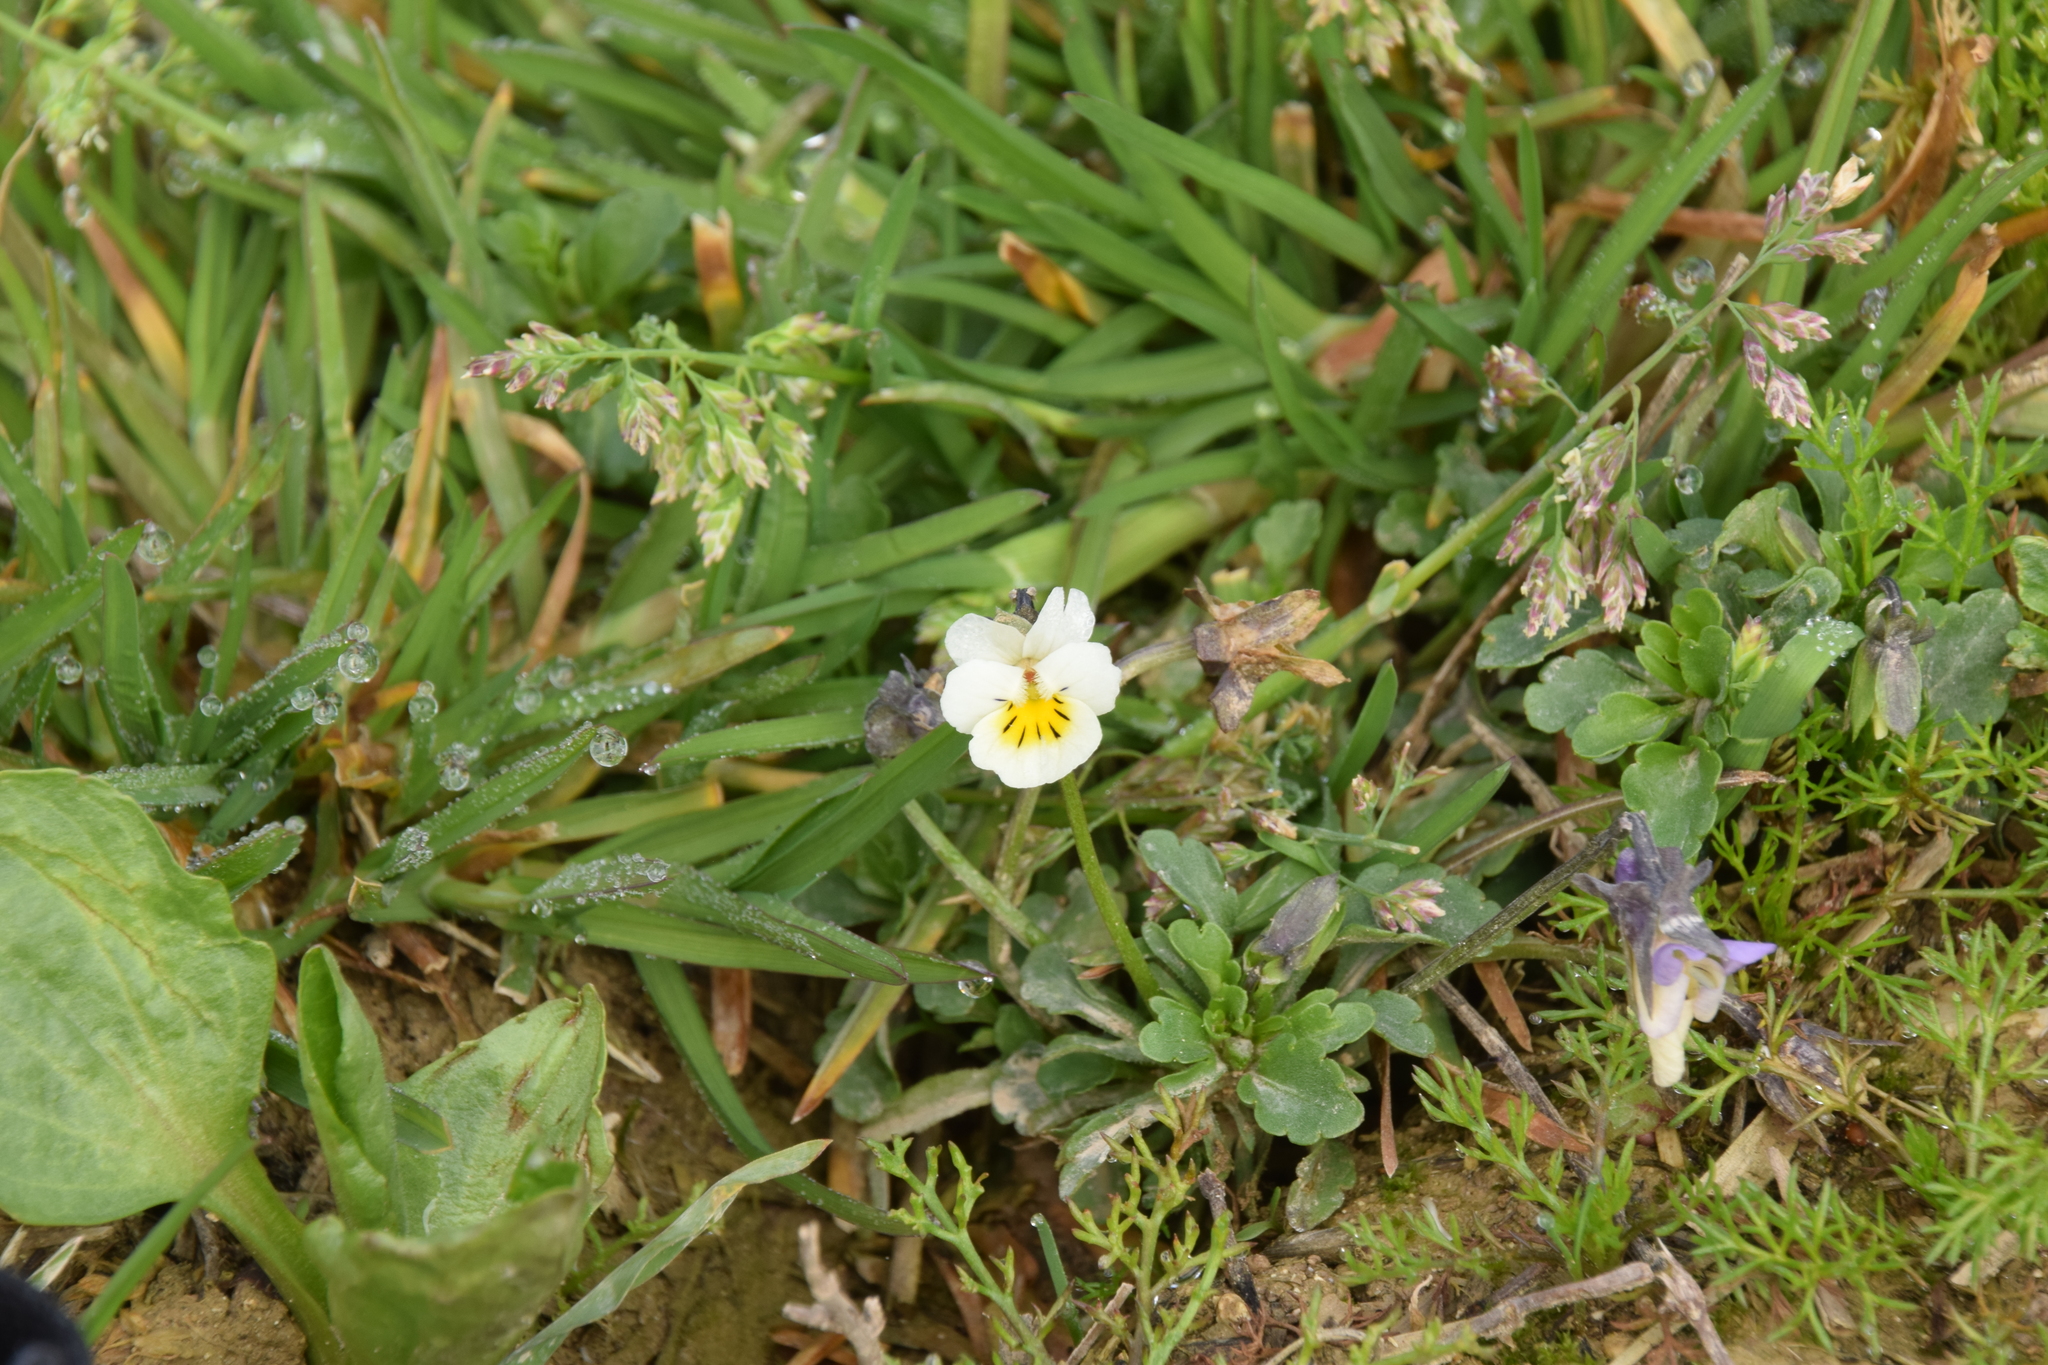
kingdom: Plantae
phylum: Tracheophyta
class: Magnoliopsida
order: Malpighiales
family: Violaceae
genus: Viola
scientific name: Viola arvensis
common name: Field pansy
